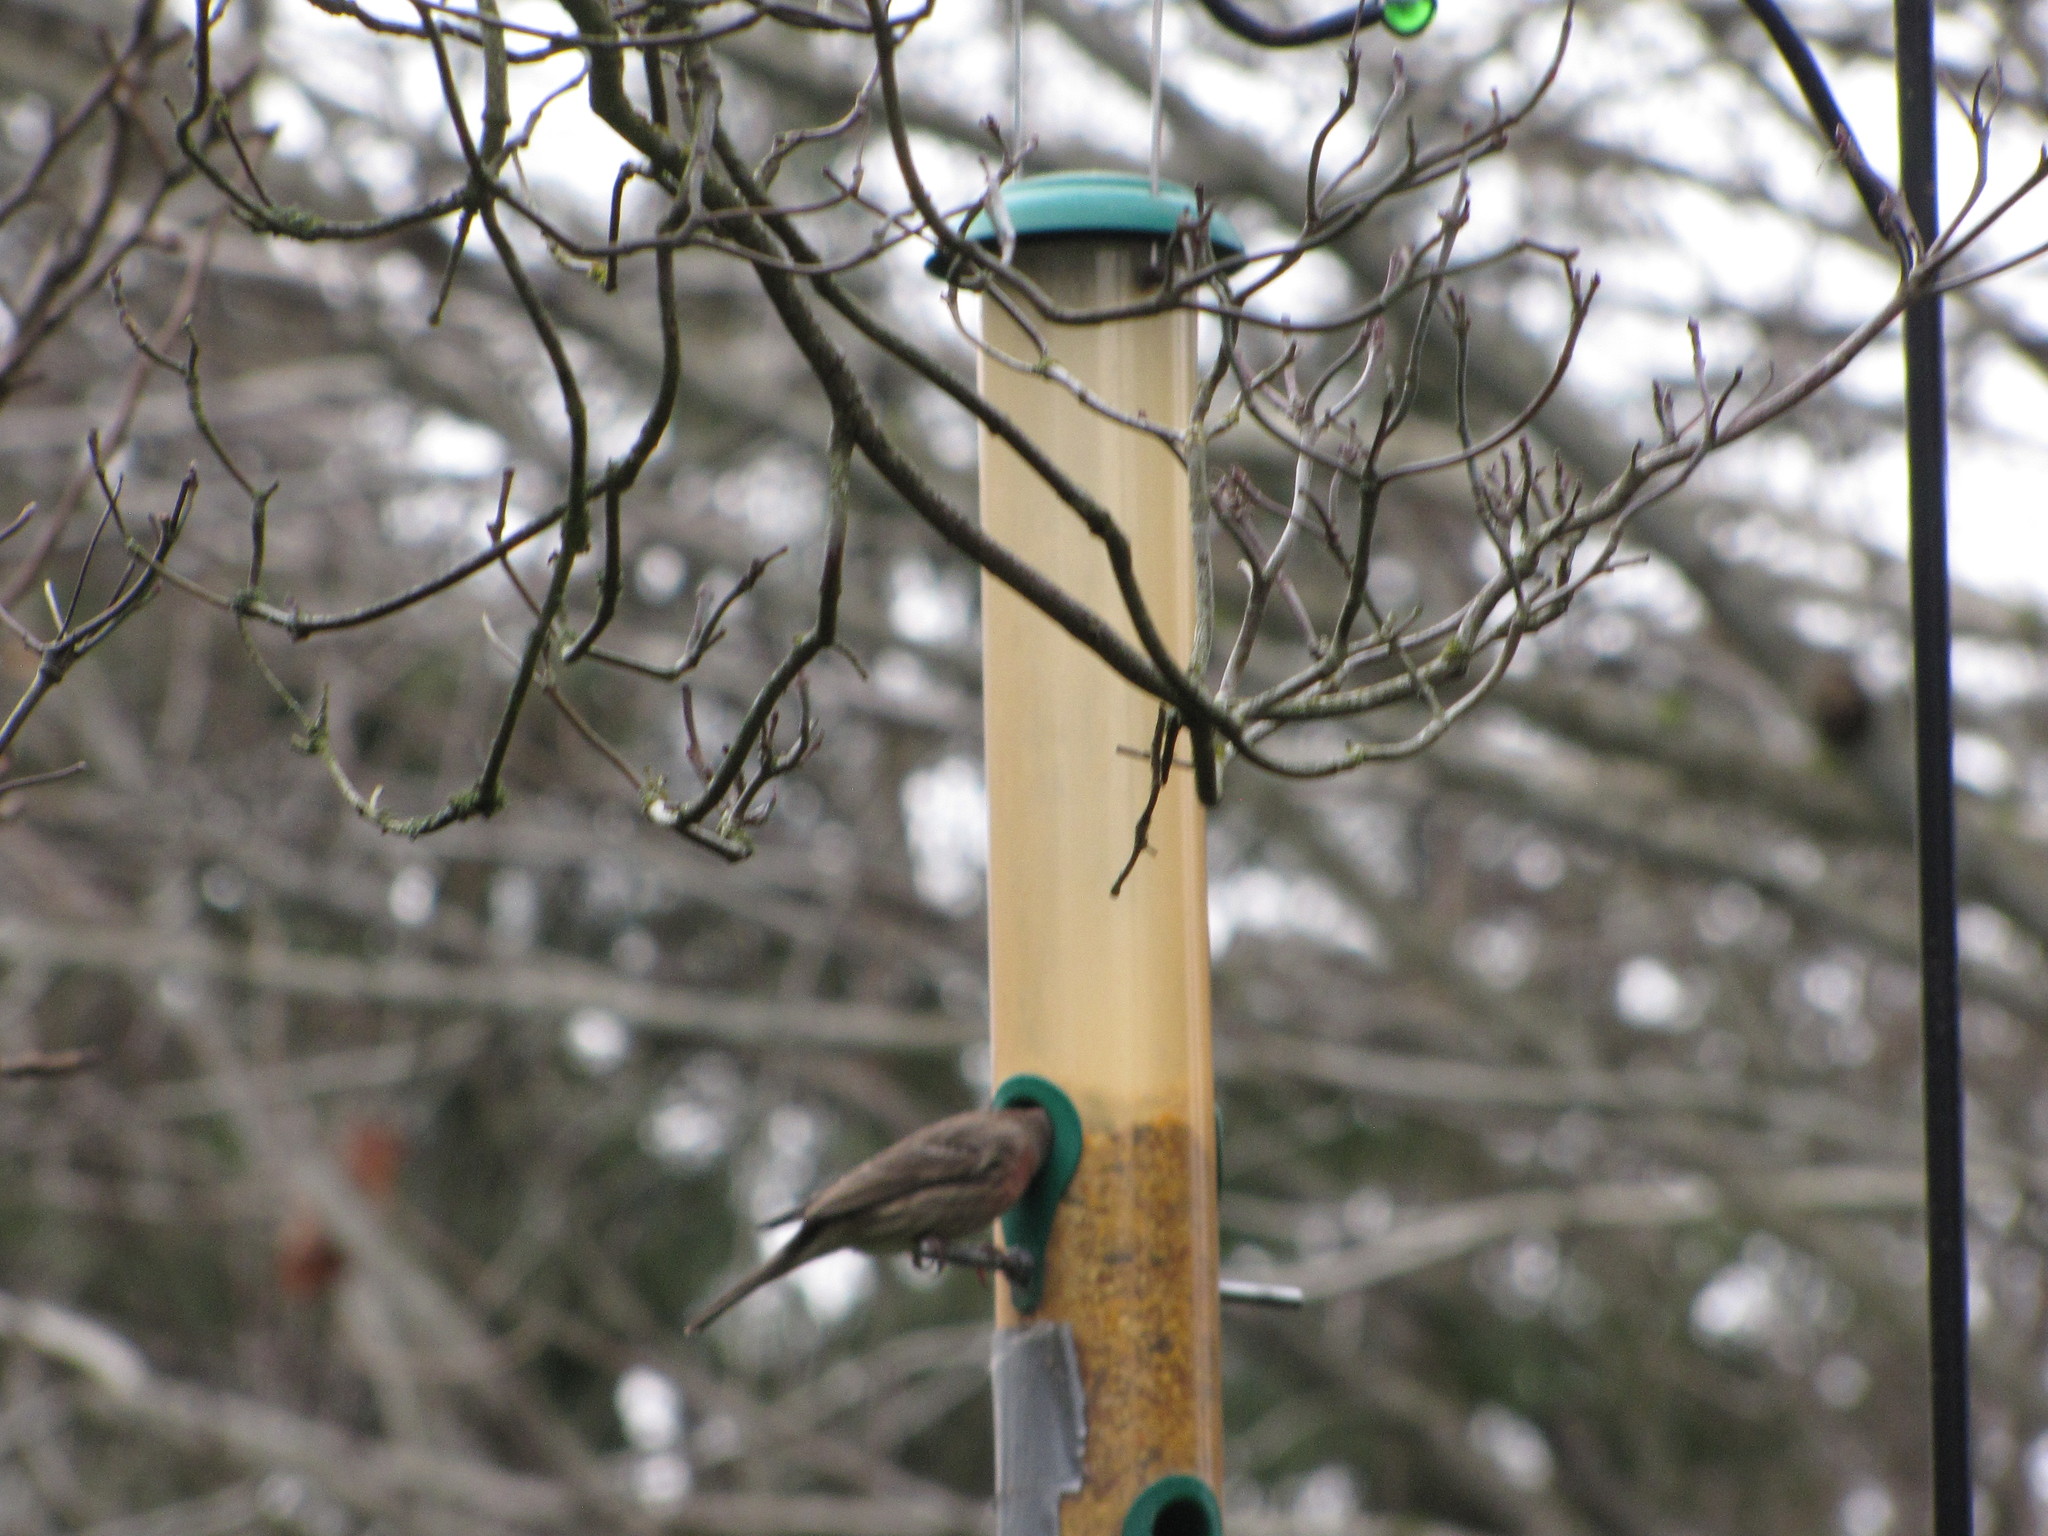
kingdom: Animalia
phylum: Chordata
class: Aves
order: Passeriformes
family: Fringillidae
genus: Haemorhous
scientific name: Haemorhous mexicanus
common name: House finch
